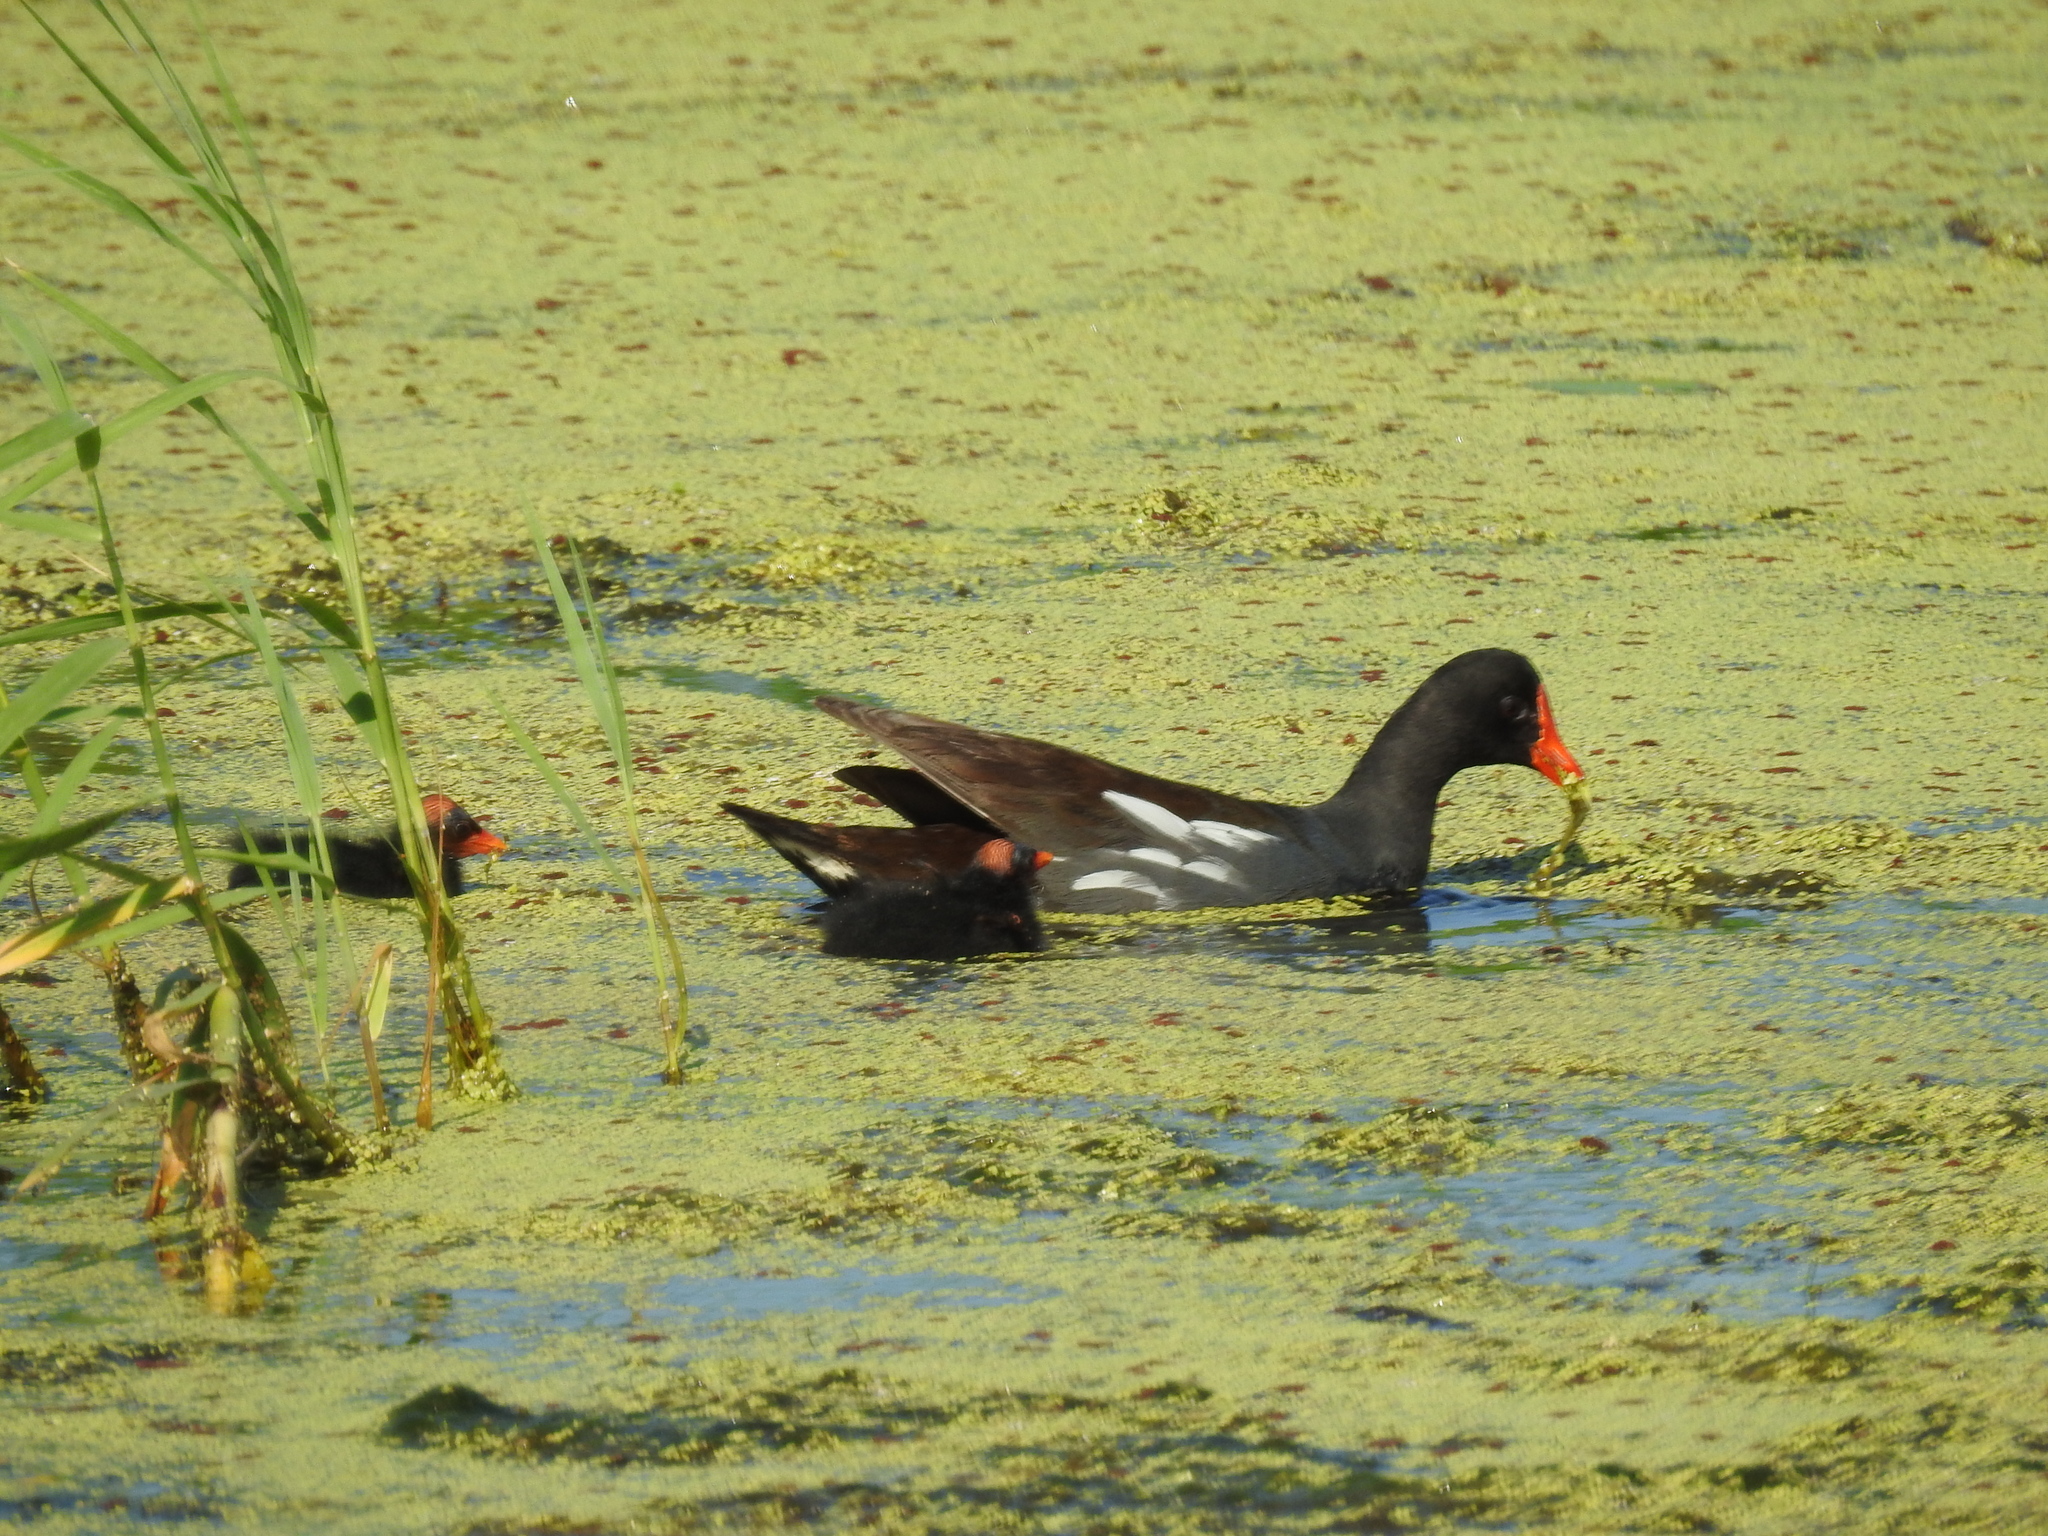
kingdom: Animalia
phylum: Chordata
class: Aves
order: Gruiformes
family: Rallidae
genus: Gallinula
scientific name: Gallinula chloropus
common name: Common moorhen
